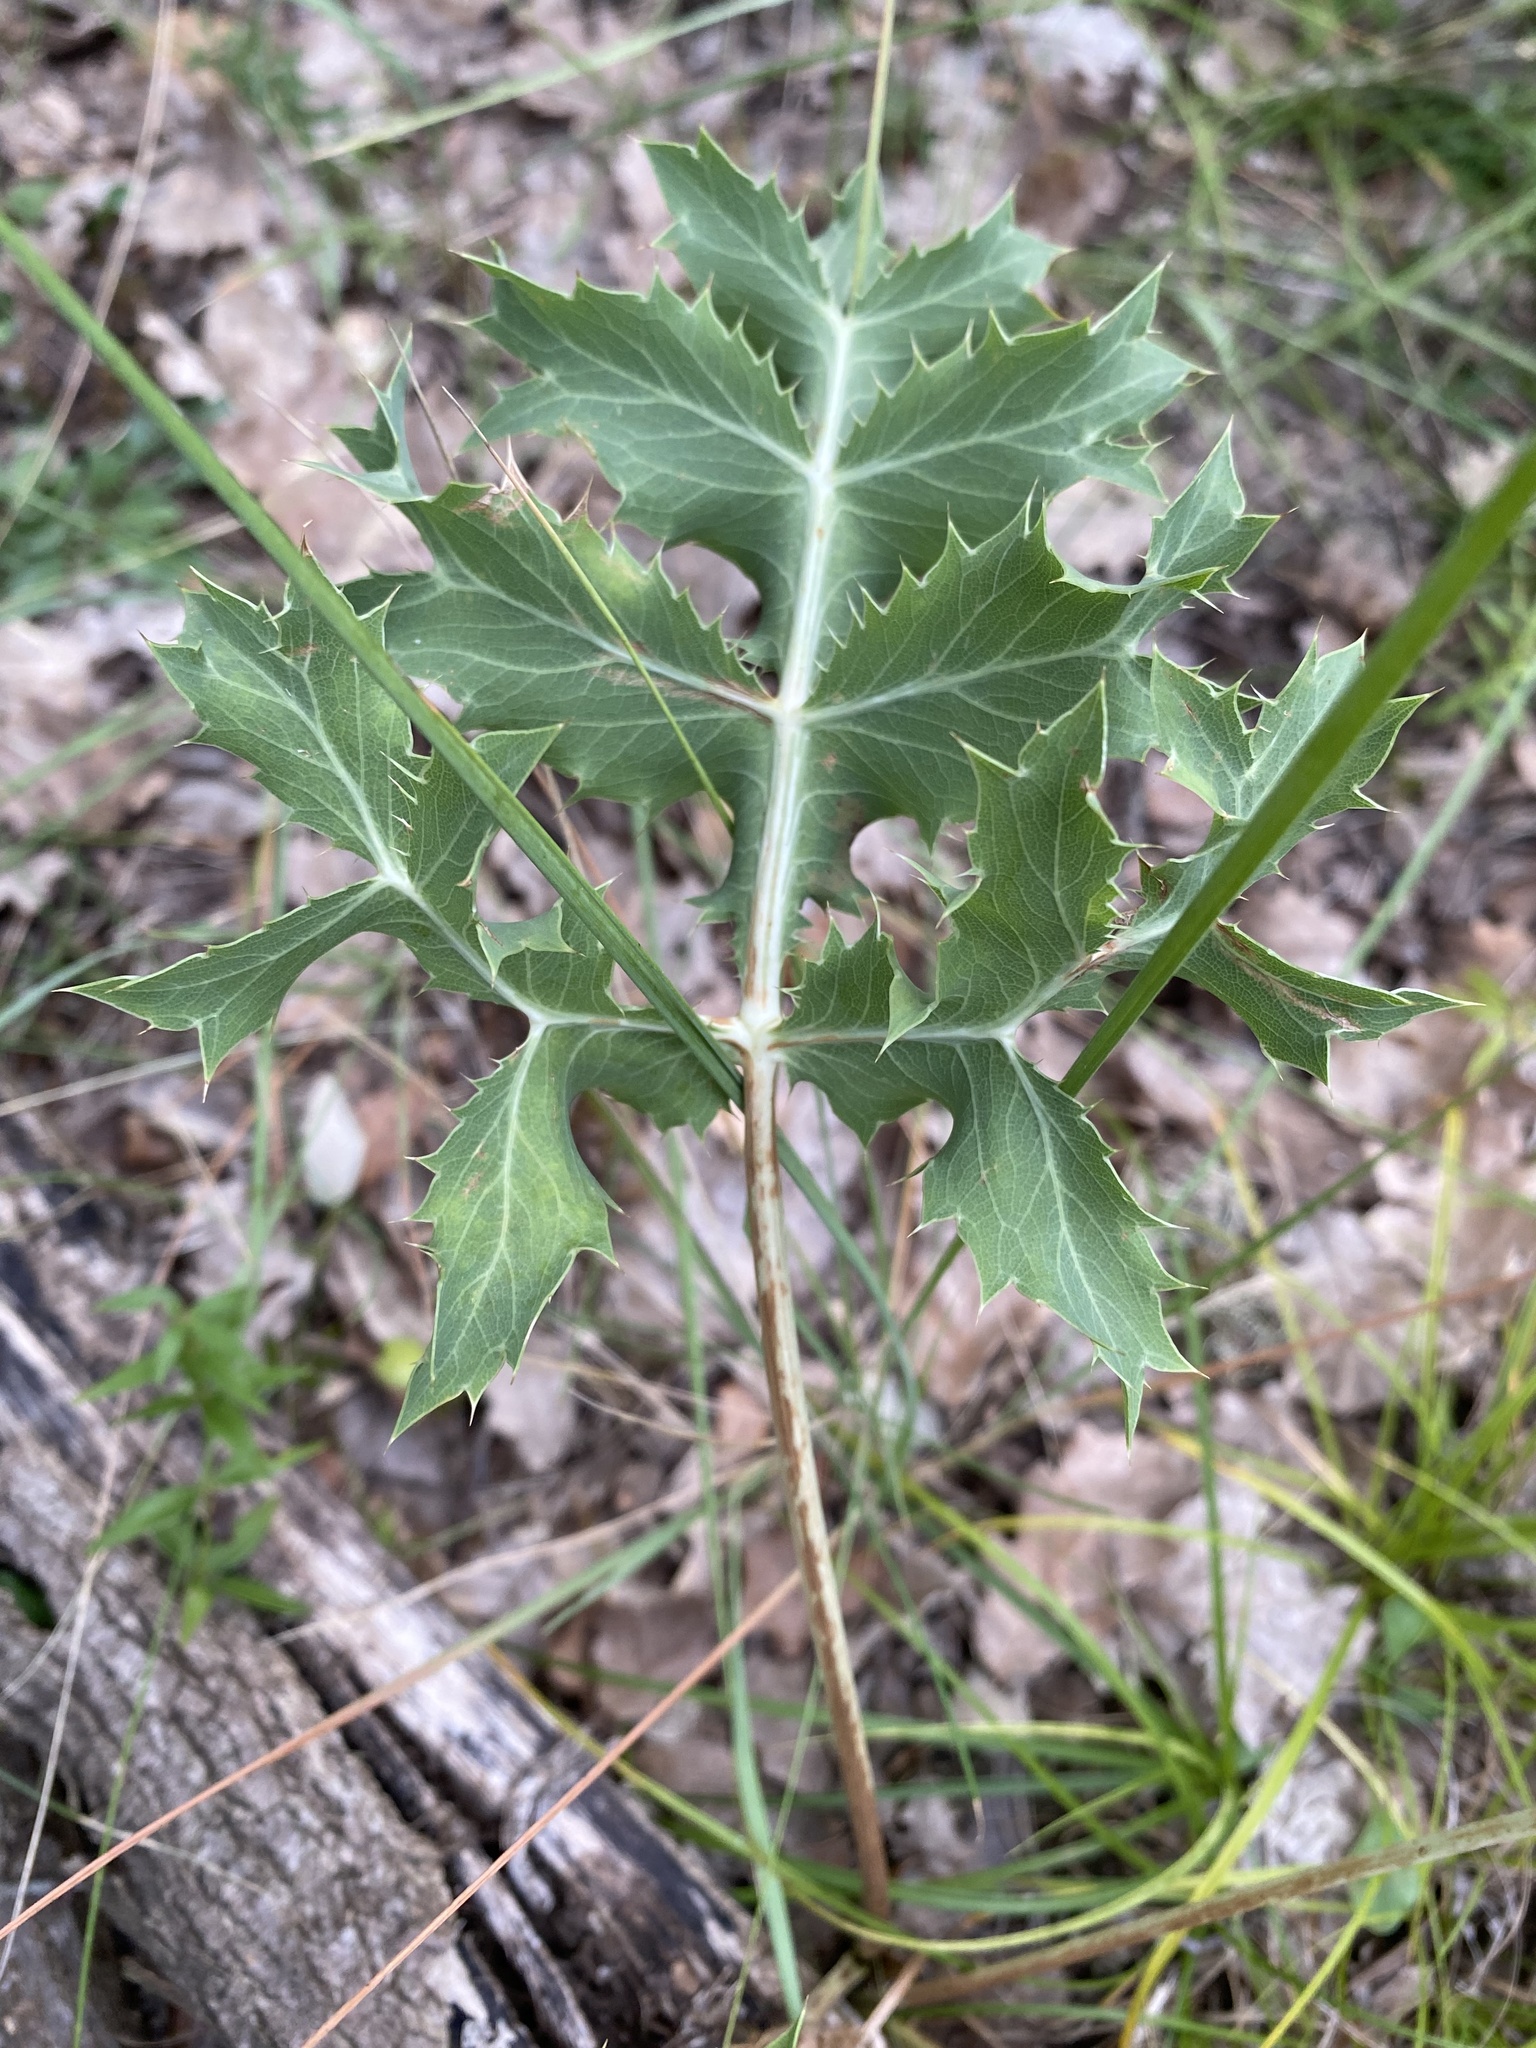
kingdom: Plantae
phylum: Tracheophyta
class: Magnoliopsida
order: Apiales
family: Apiaceae
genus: Eryngium
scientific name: Eryngium campestre
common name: Field eryngo
